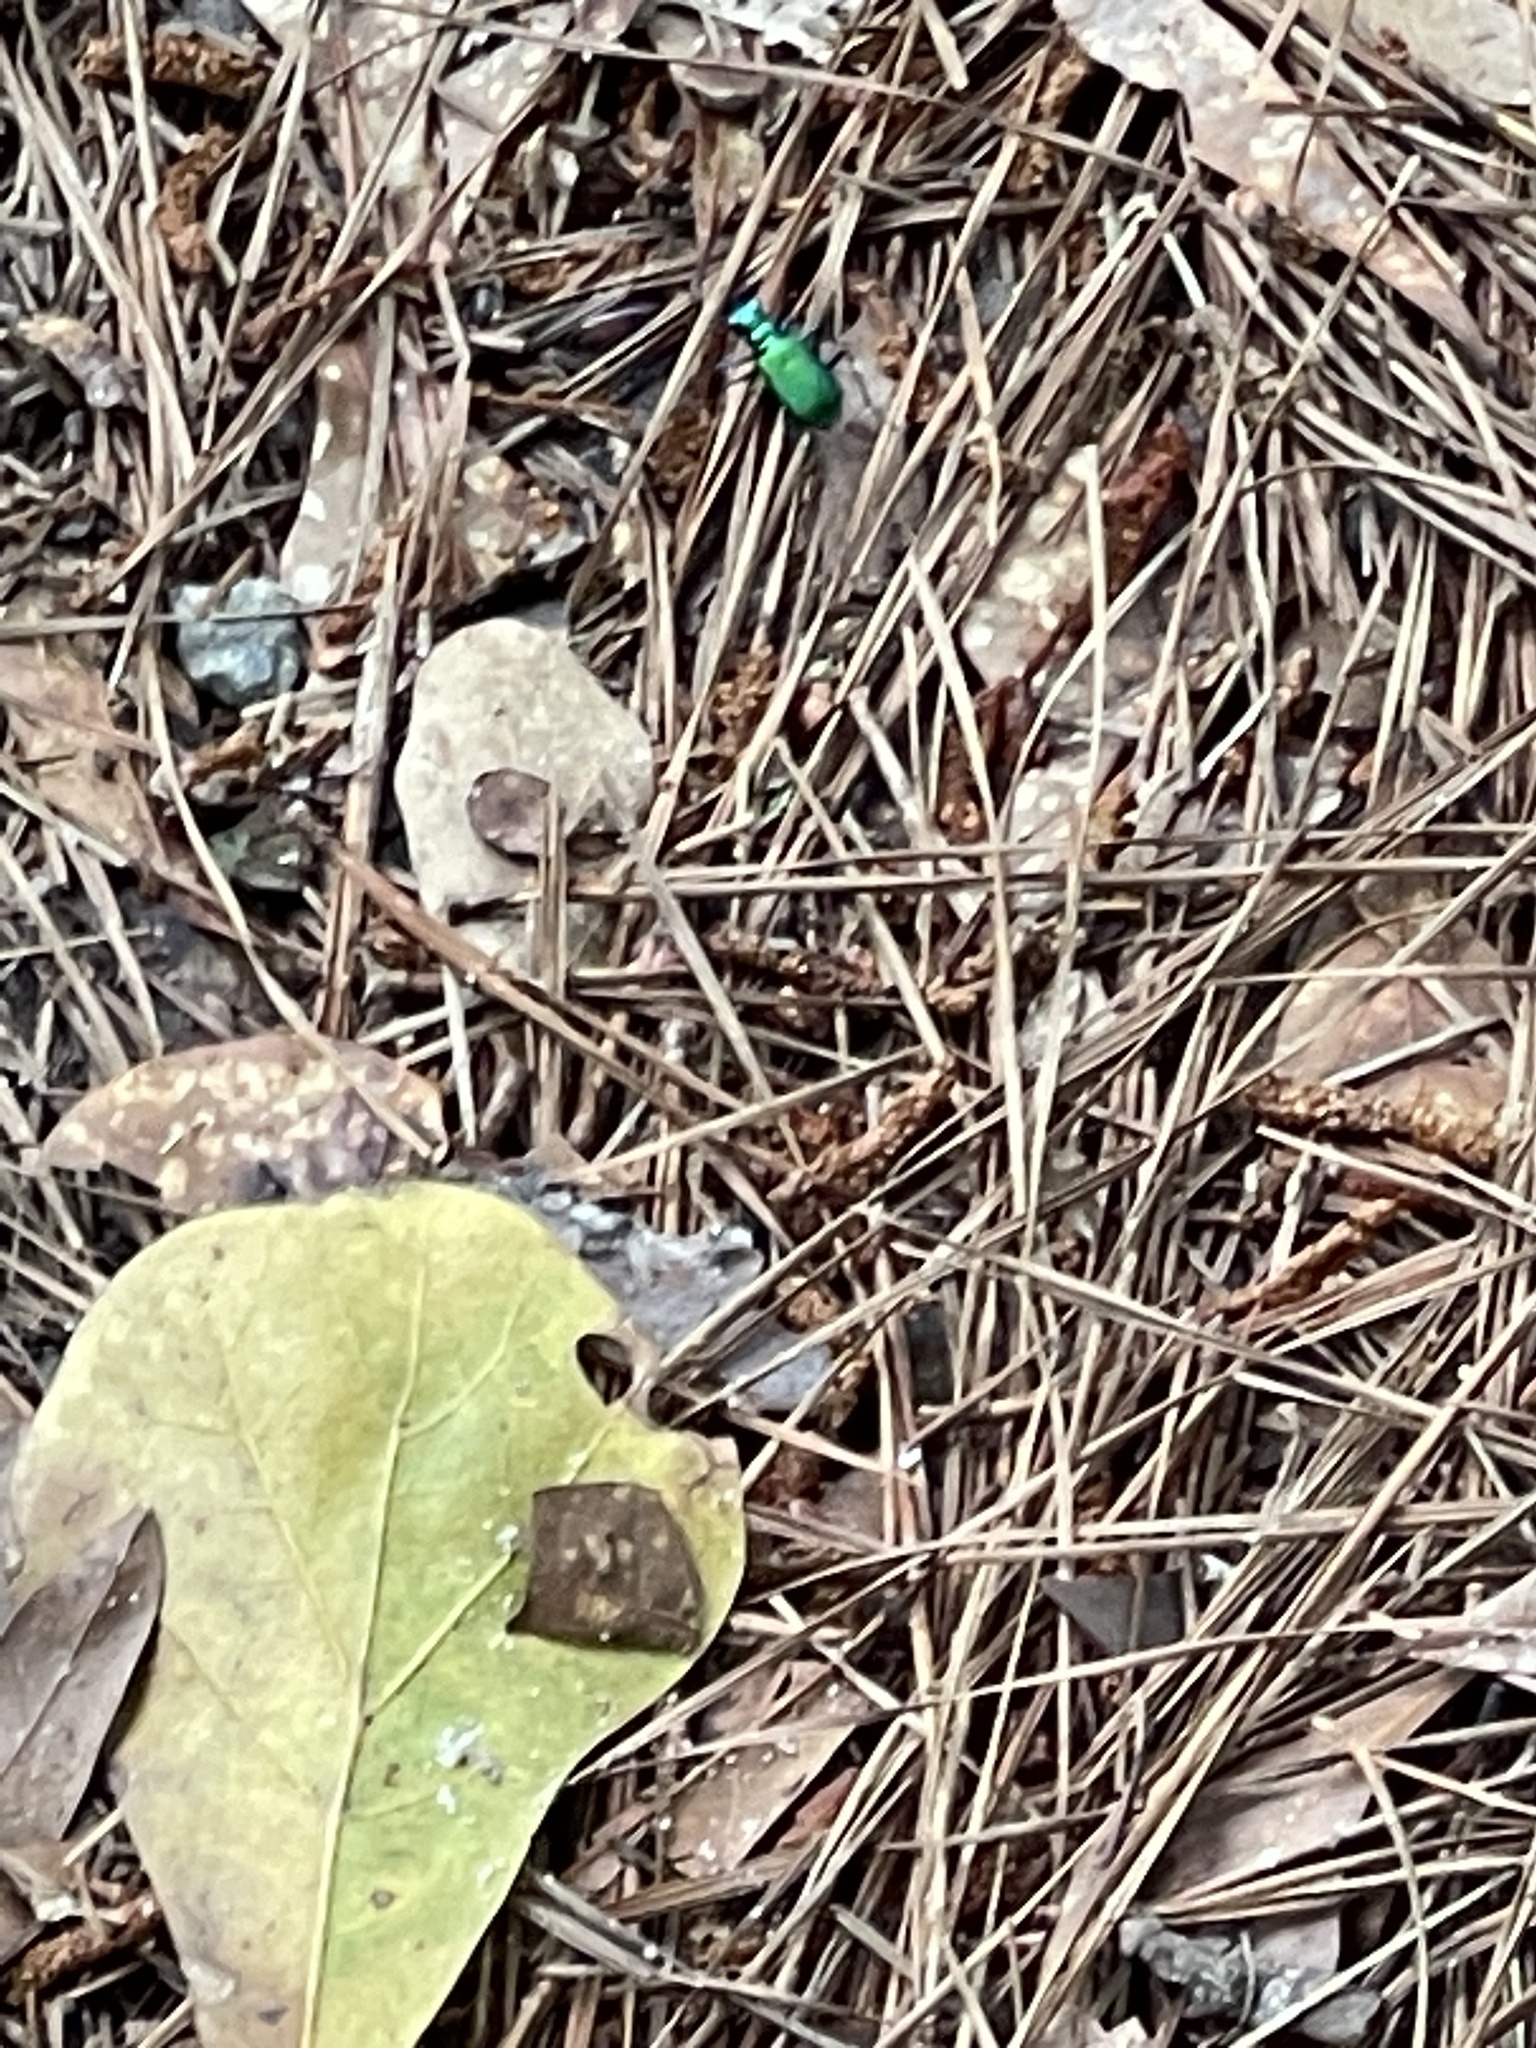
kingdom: Animalia
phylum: Arthropoda
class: Insecta
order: Coleoptera
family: Carabidae
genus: Cicindela
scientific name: Cicindela sexguttata
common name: Six-spotted tiger beetle
